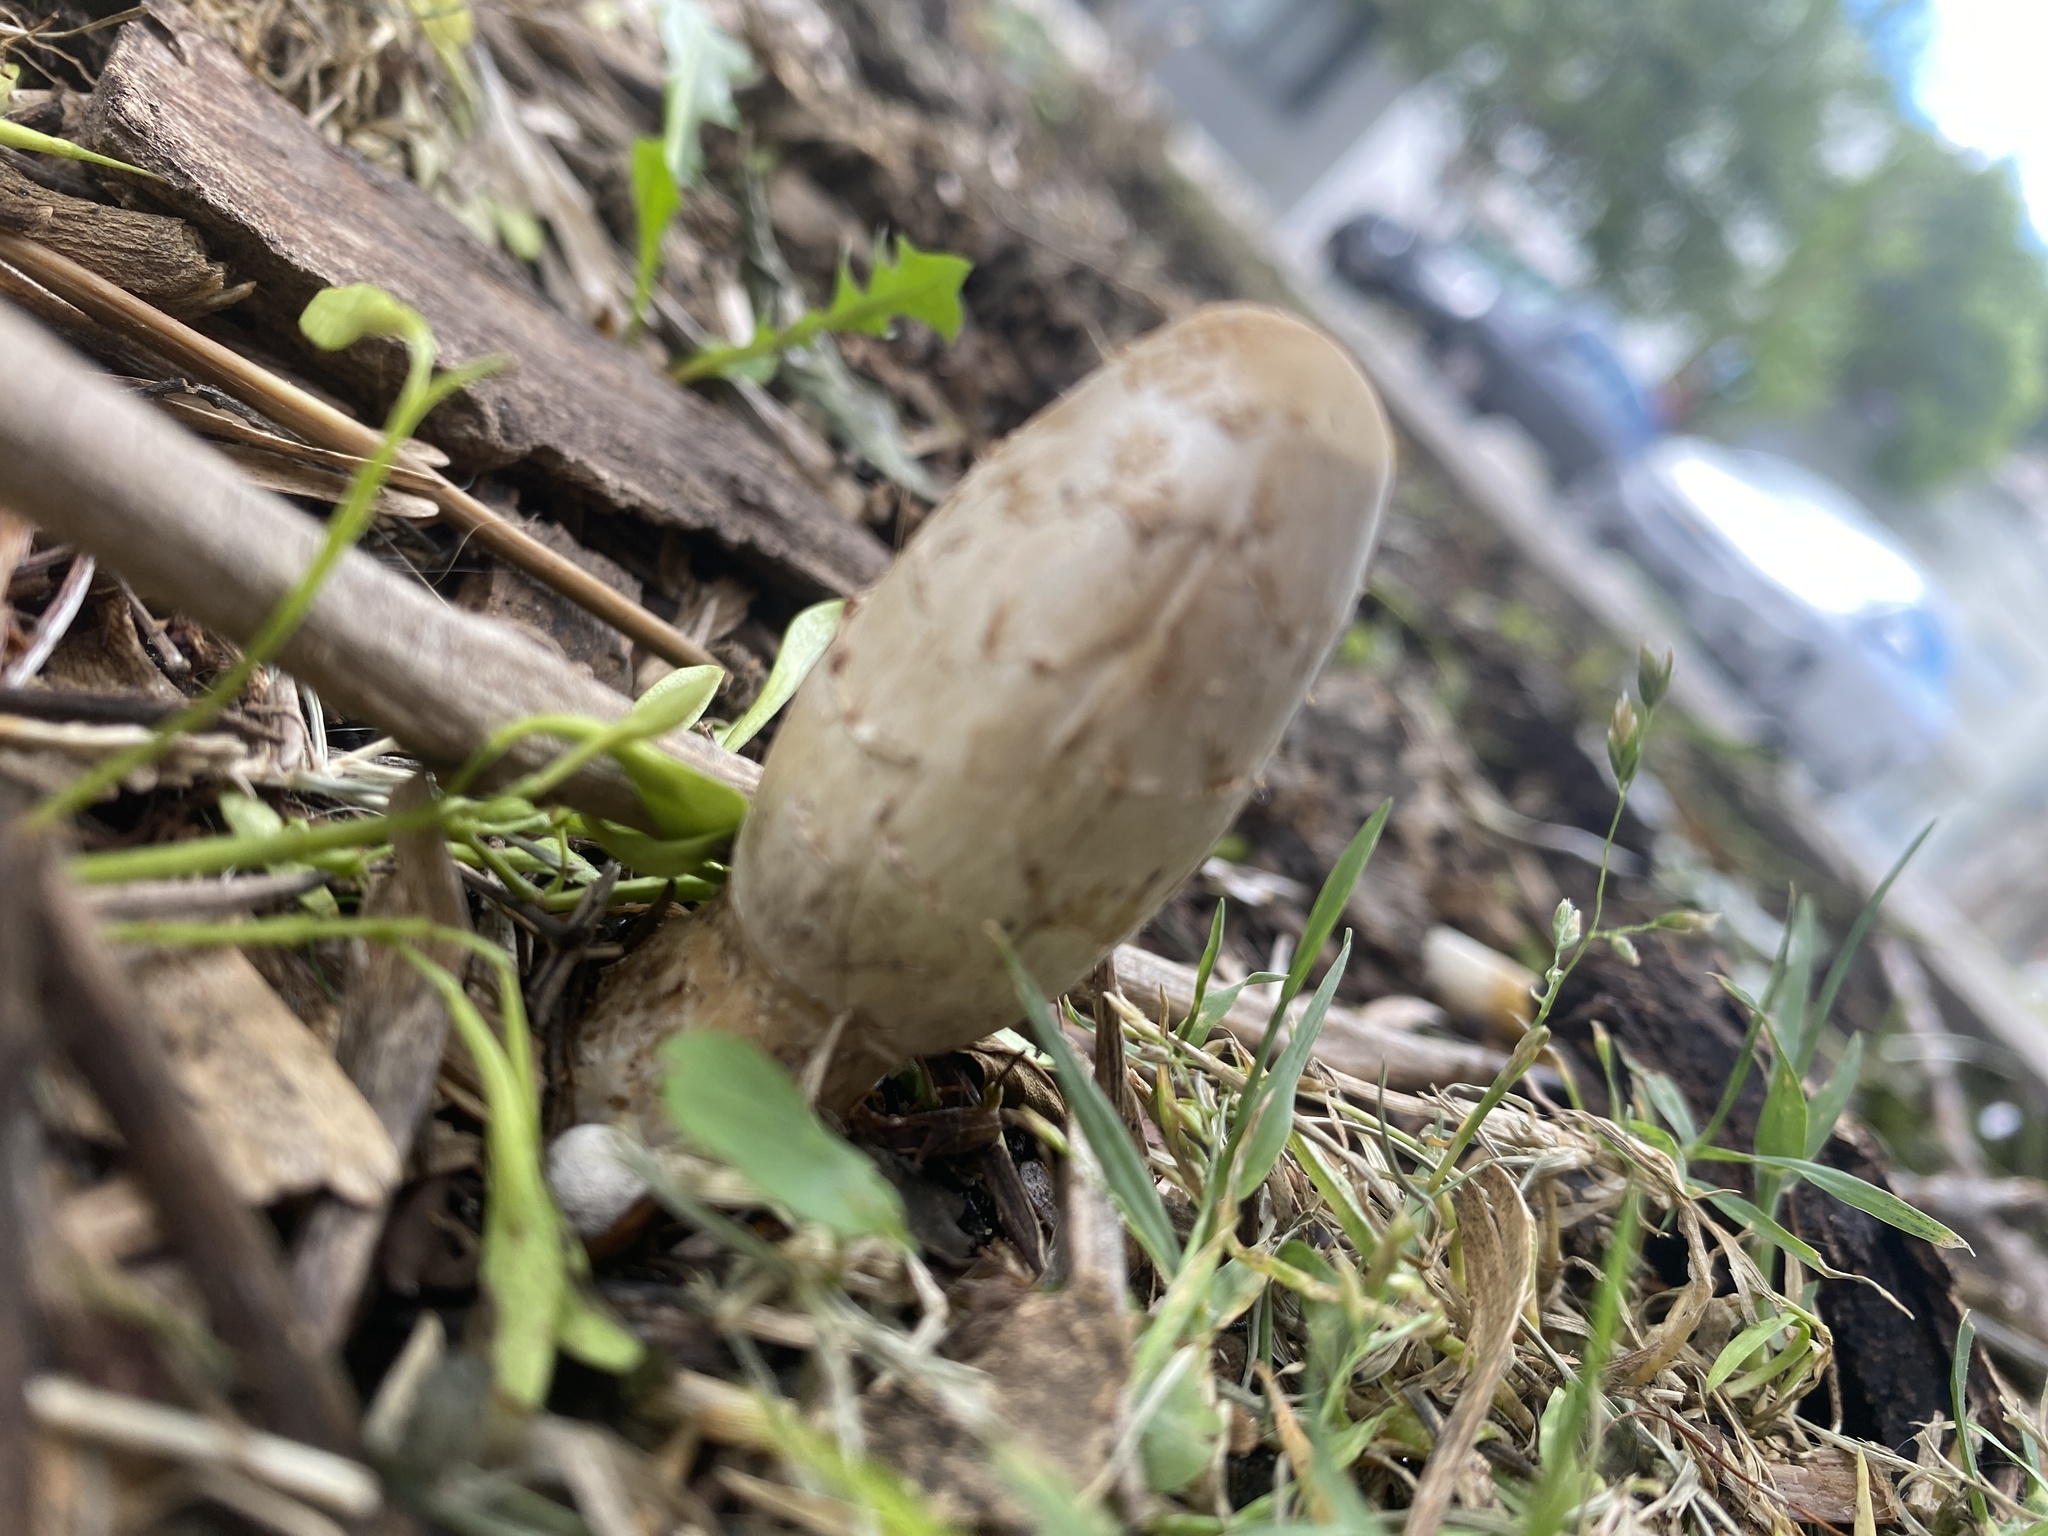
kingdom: Fungi
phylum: Basidiomycota
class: Agaricomycetes
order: Agaricales
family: Agaricaceae
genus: Coprinus
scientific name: Coprinus comatus
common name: Lawyer's wig
